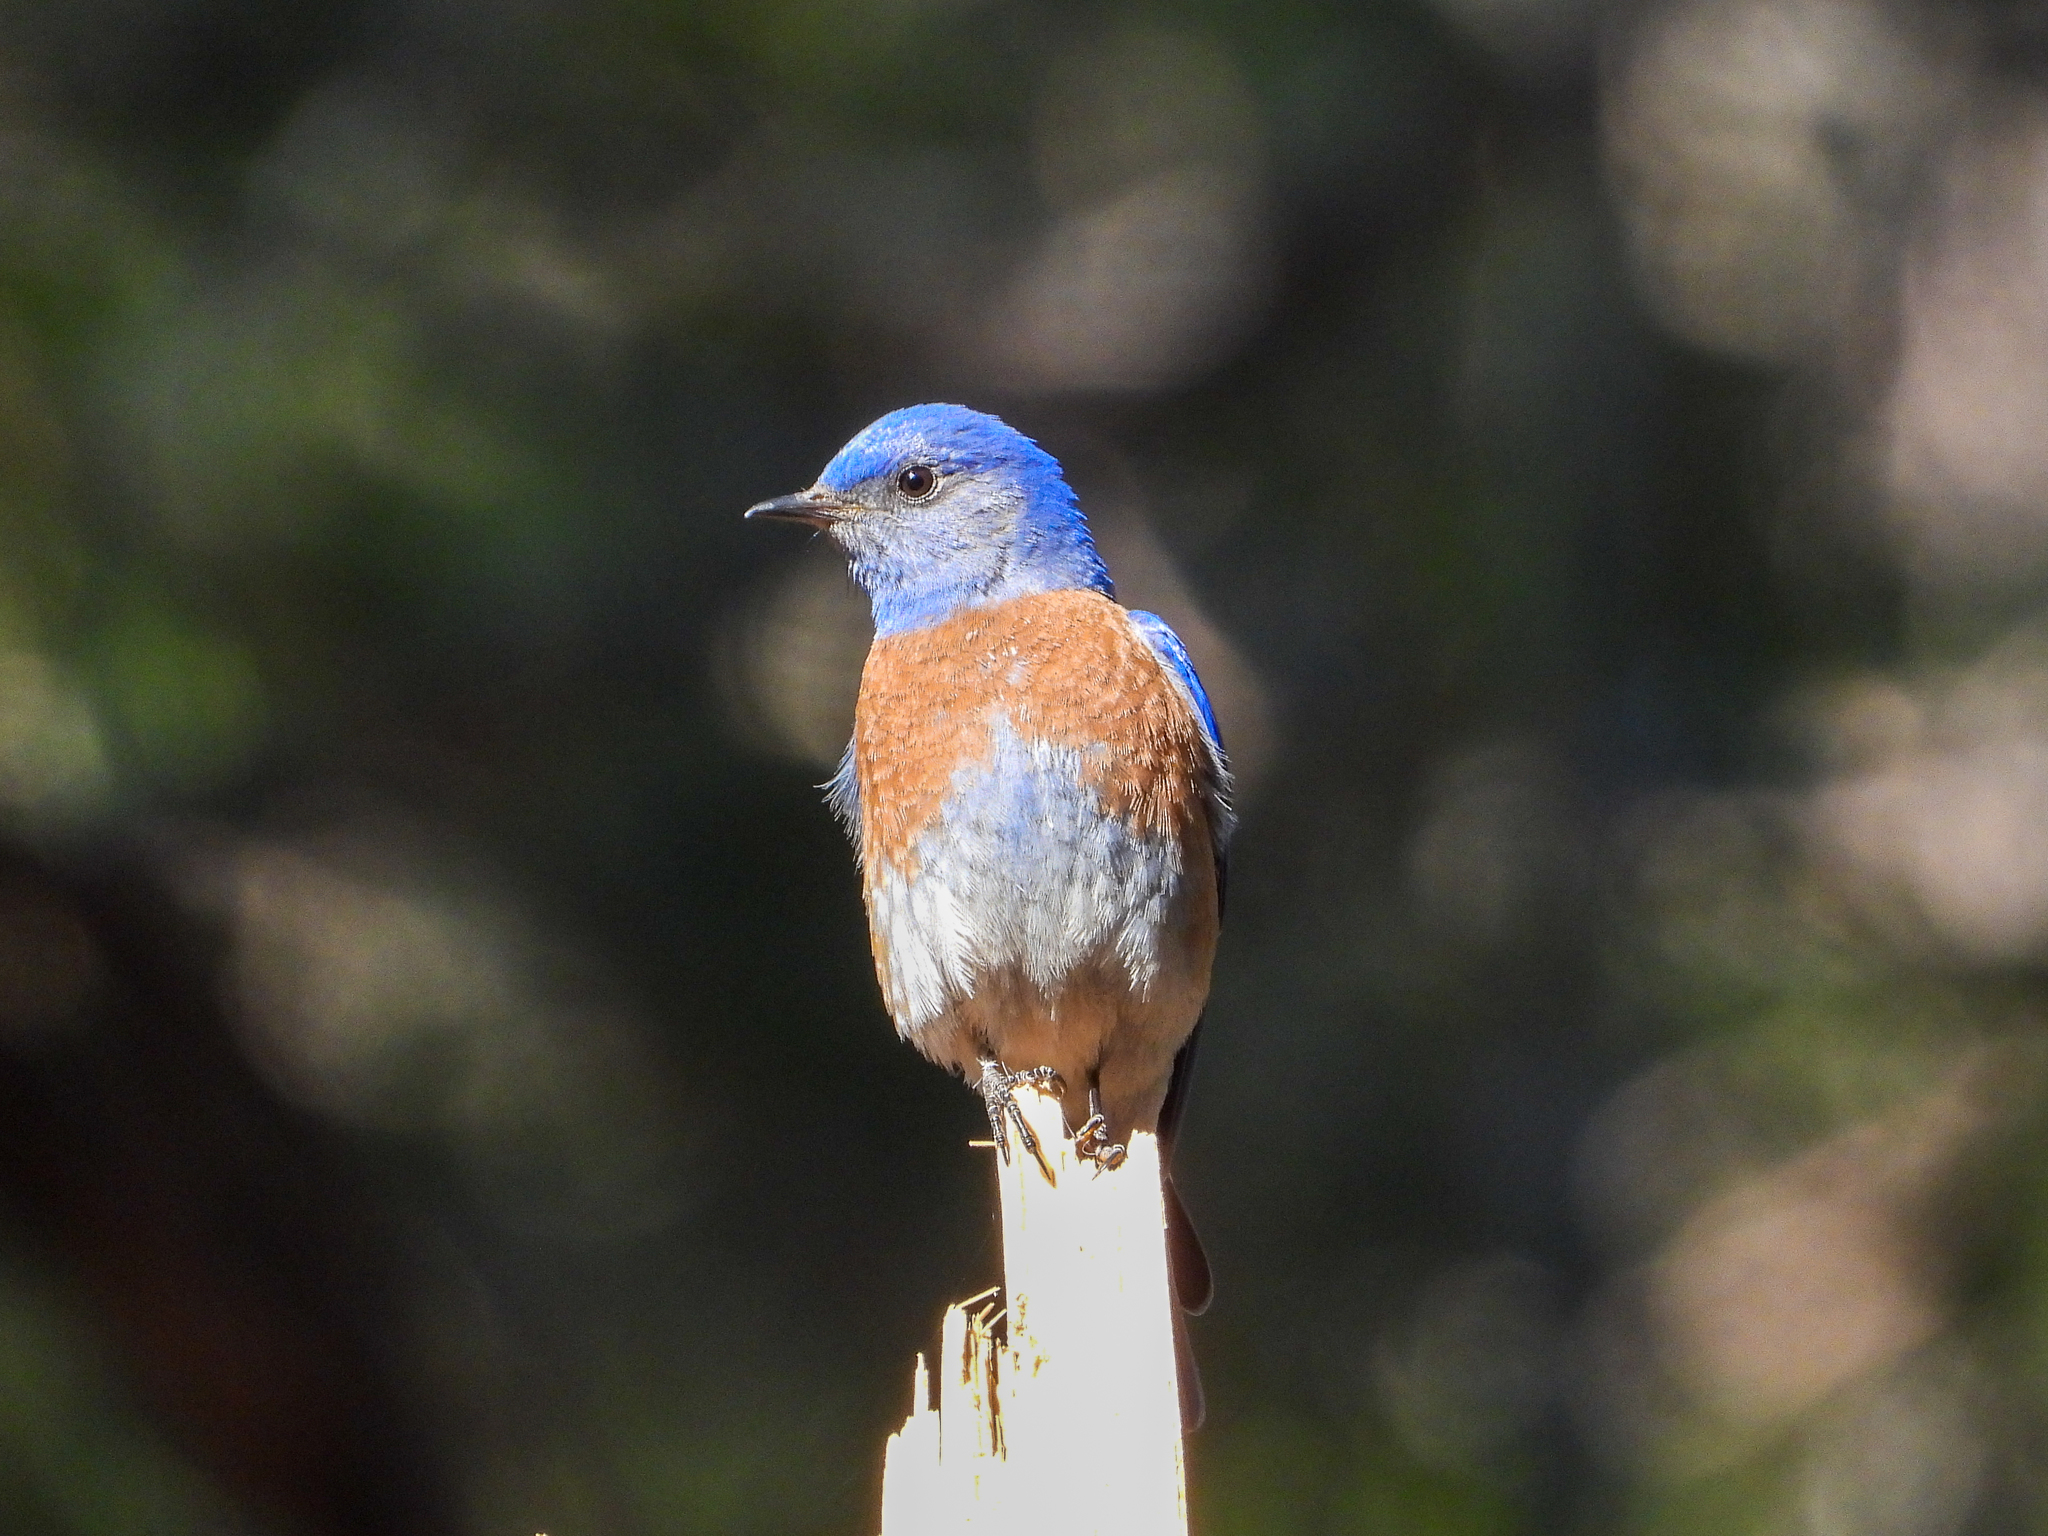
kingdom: Animalia
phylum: Chordata
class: Aves
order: Passeriformes
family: Turdidae
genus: Sialia
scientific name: Sialia mexicana
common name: Western bluebird
